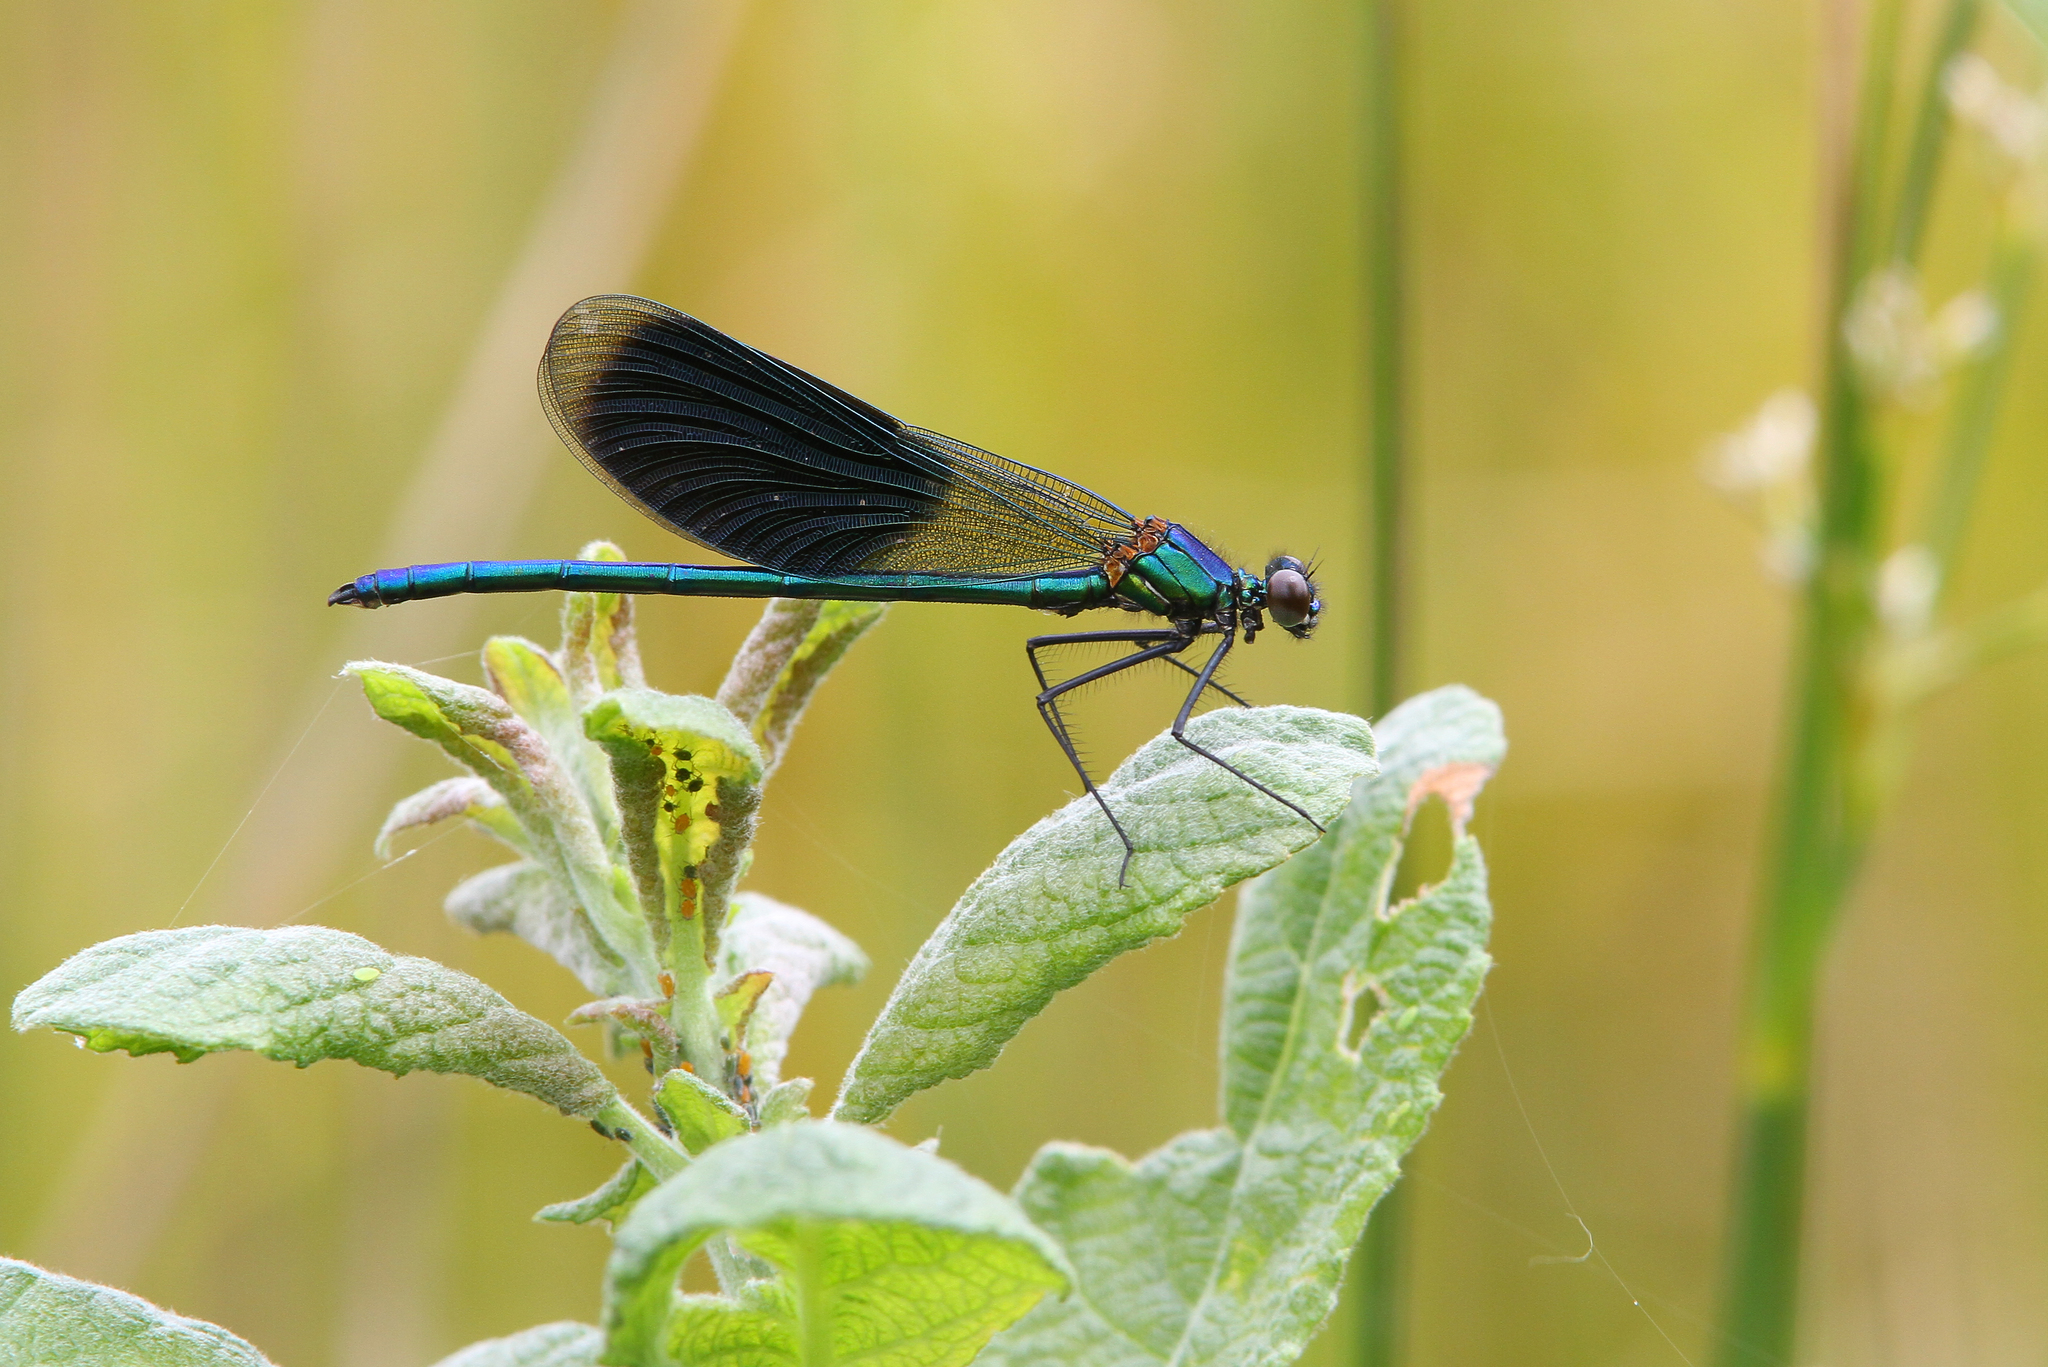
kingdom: Animalia
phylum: Arthropoda
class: Insecta
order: Odonata
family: Calopterygidae
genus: Calopteryx
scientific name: Calopteryx splendens
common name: Banded demoiselle
